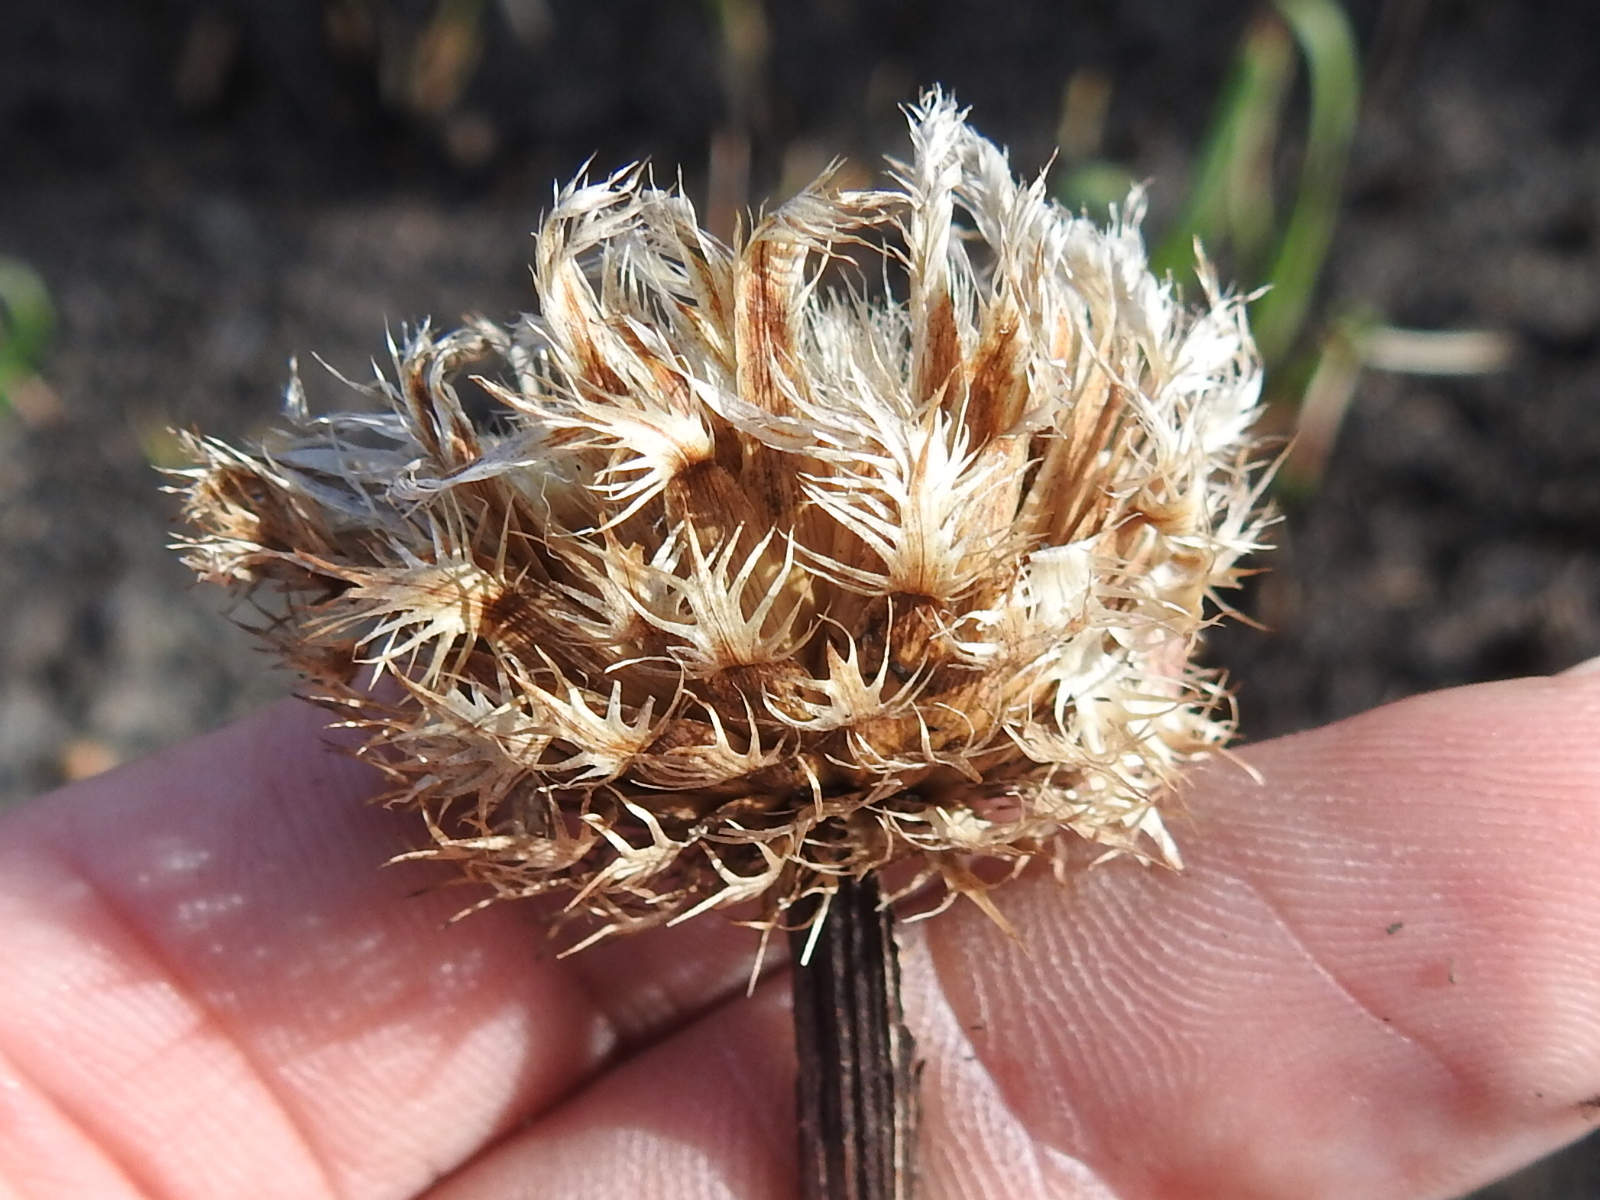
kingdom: Plantae
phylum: Tracheophyta
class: Magnoliopsida
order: Asterales
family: Asteraceae
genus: Plectocephalus
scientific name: Plectocephalus americanus
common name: American basket-flower
